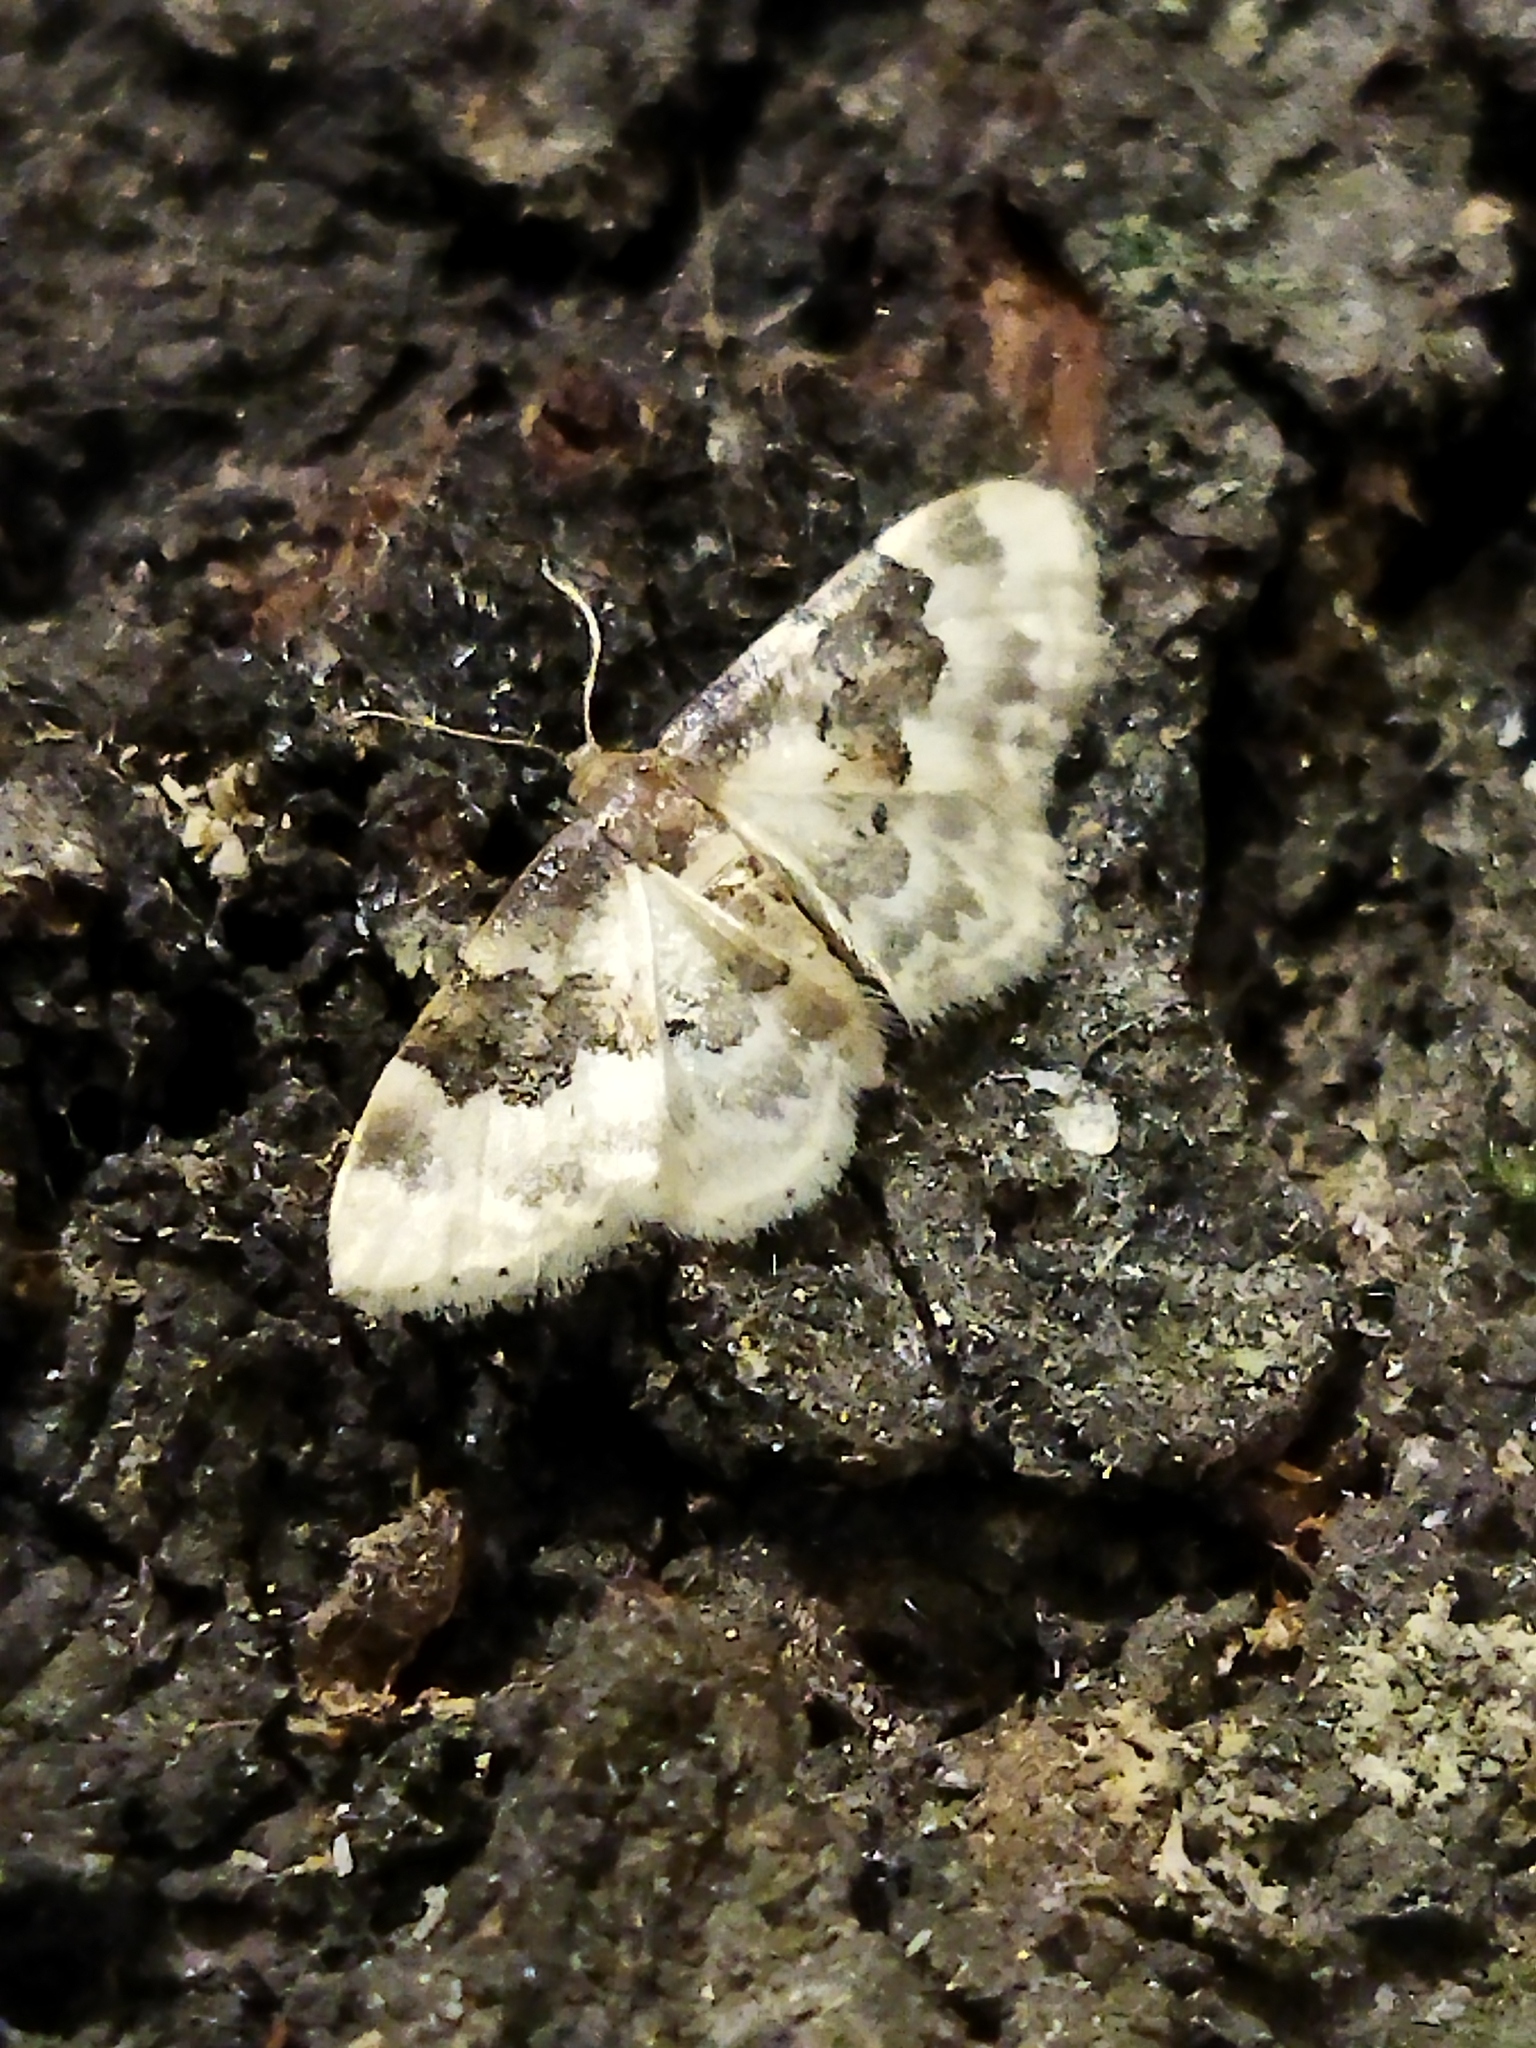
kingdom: Animalia
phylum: Arthropoda
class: Insecta
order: Lepidoptera
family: Geometridae
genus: Idaea
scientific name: Idaea rusticata
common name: Least carpet
